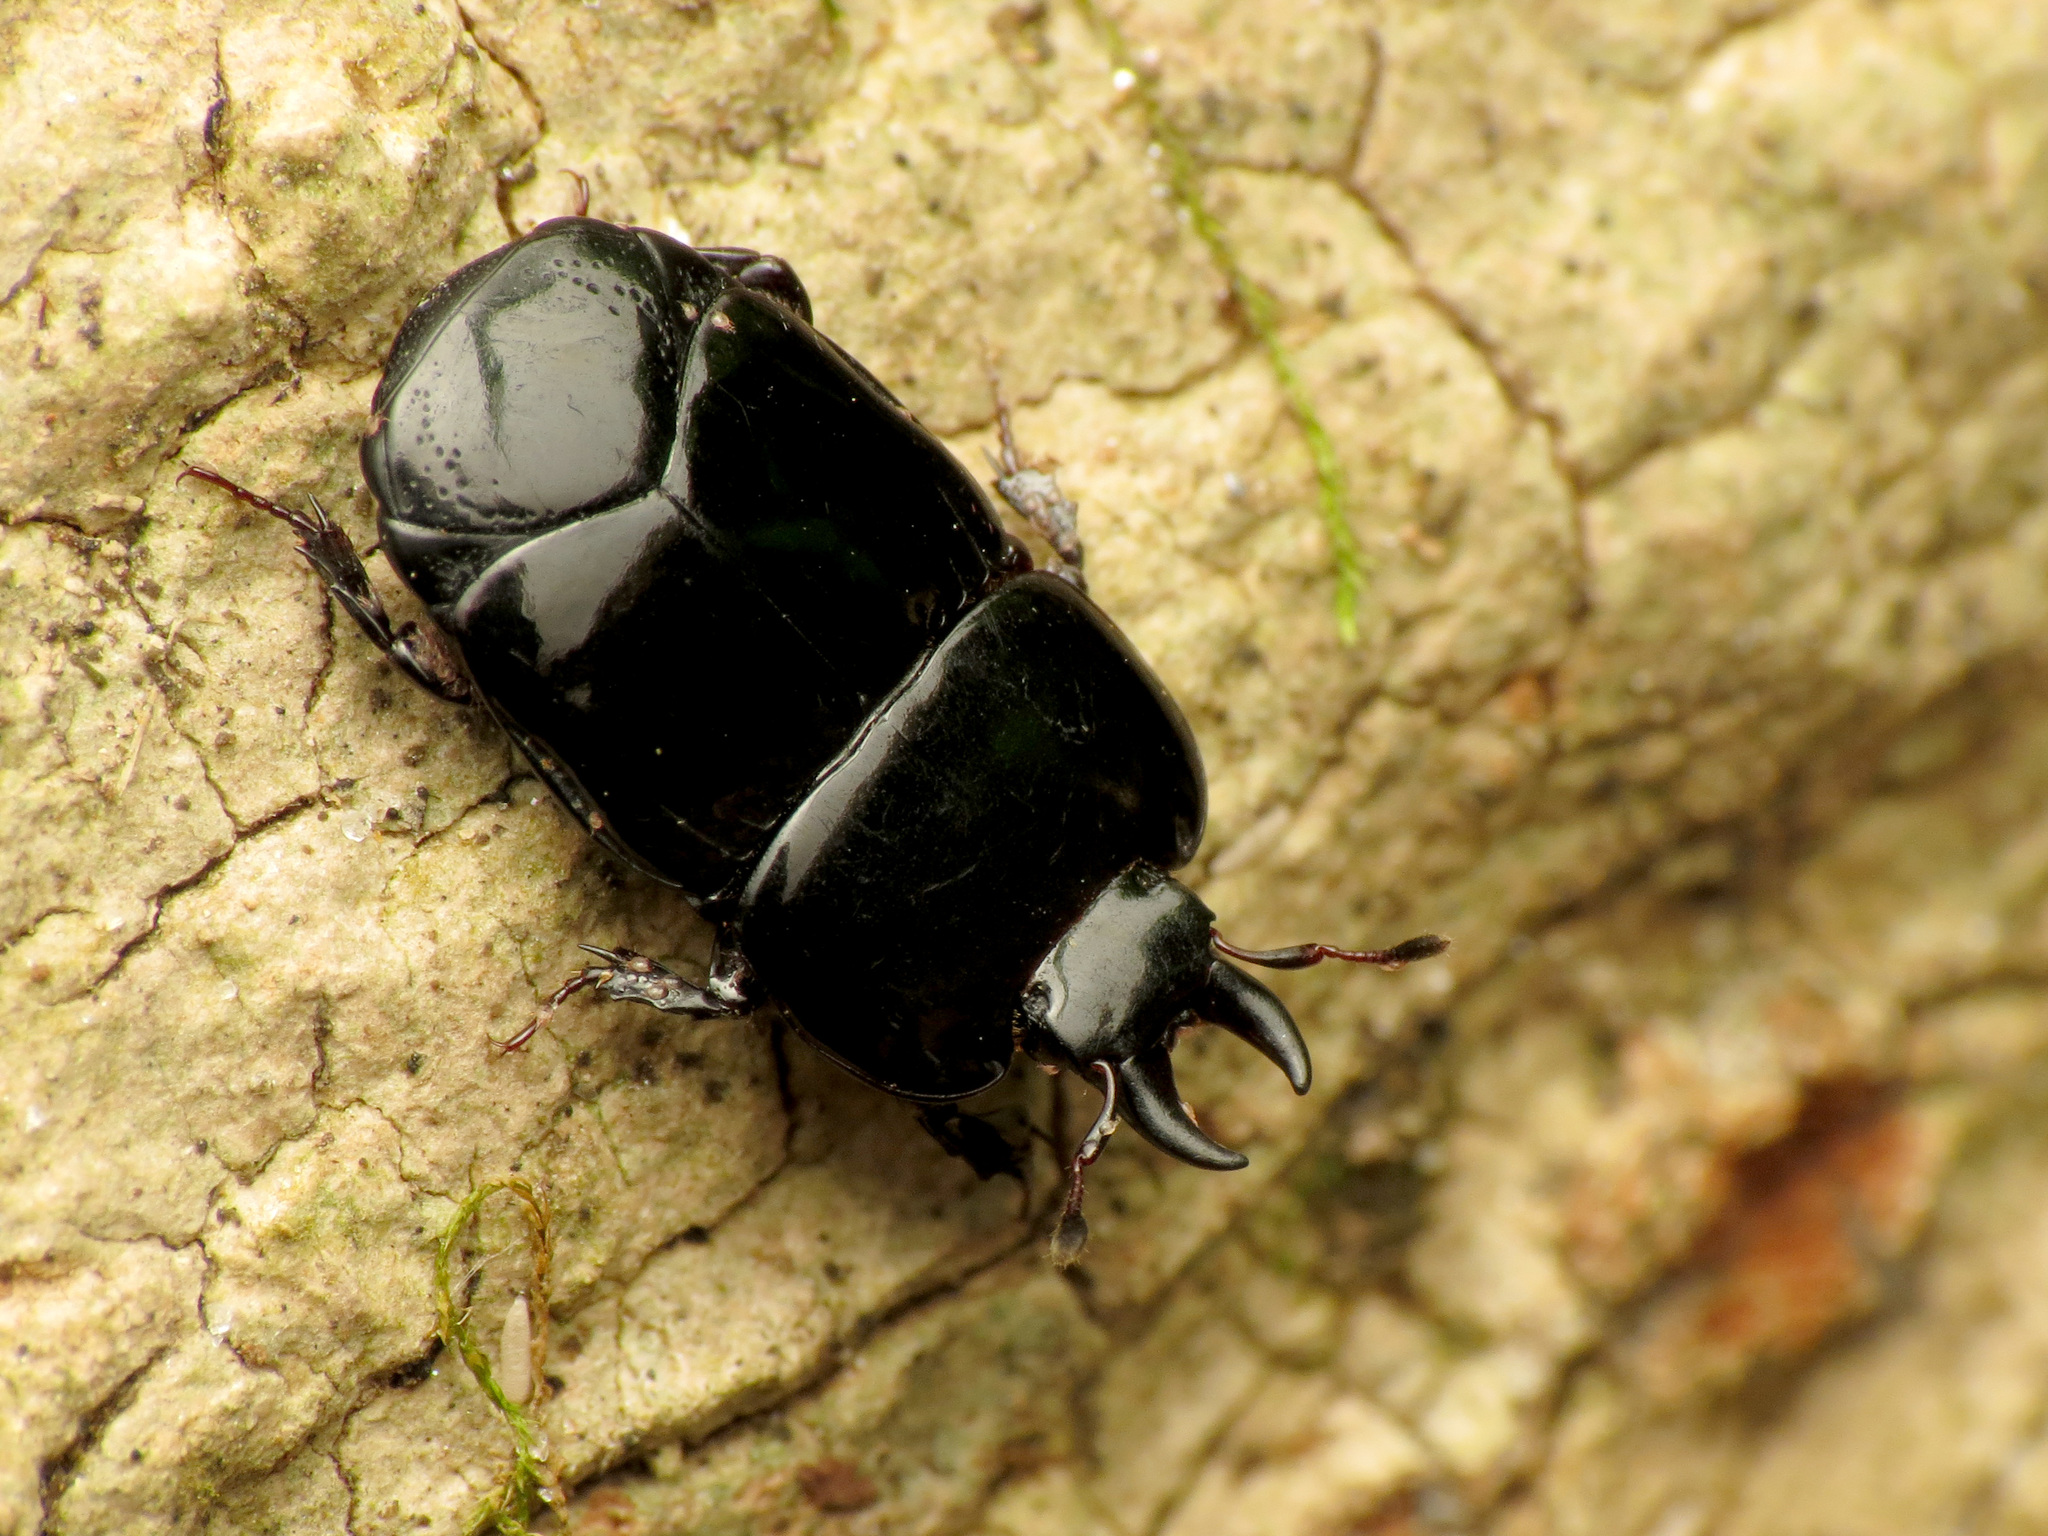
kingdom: Animalia
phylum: Arthropoda
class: Insecta
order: Coleoptera
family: Histeridae
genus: Hololepta
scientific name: Hololepta aequalis
